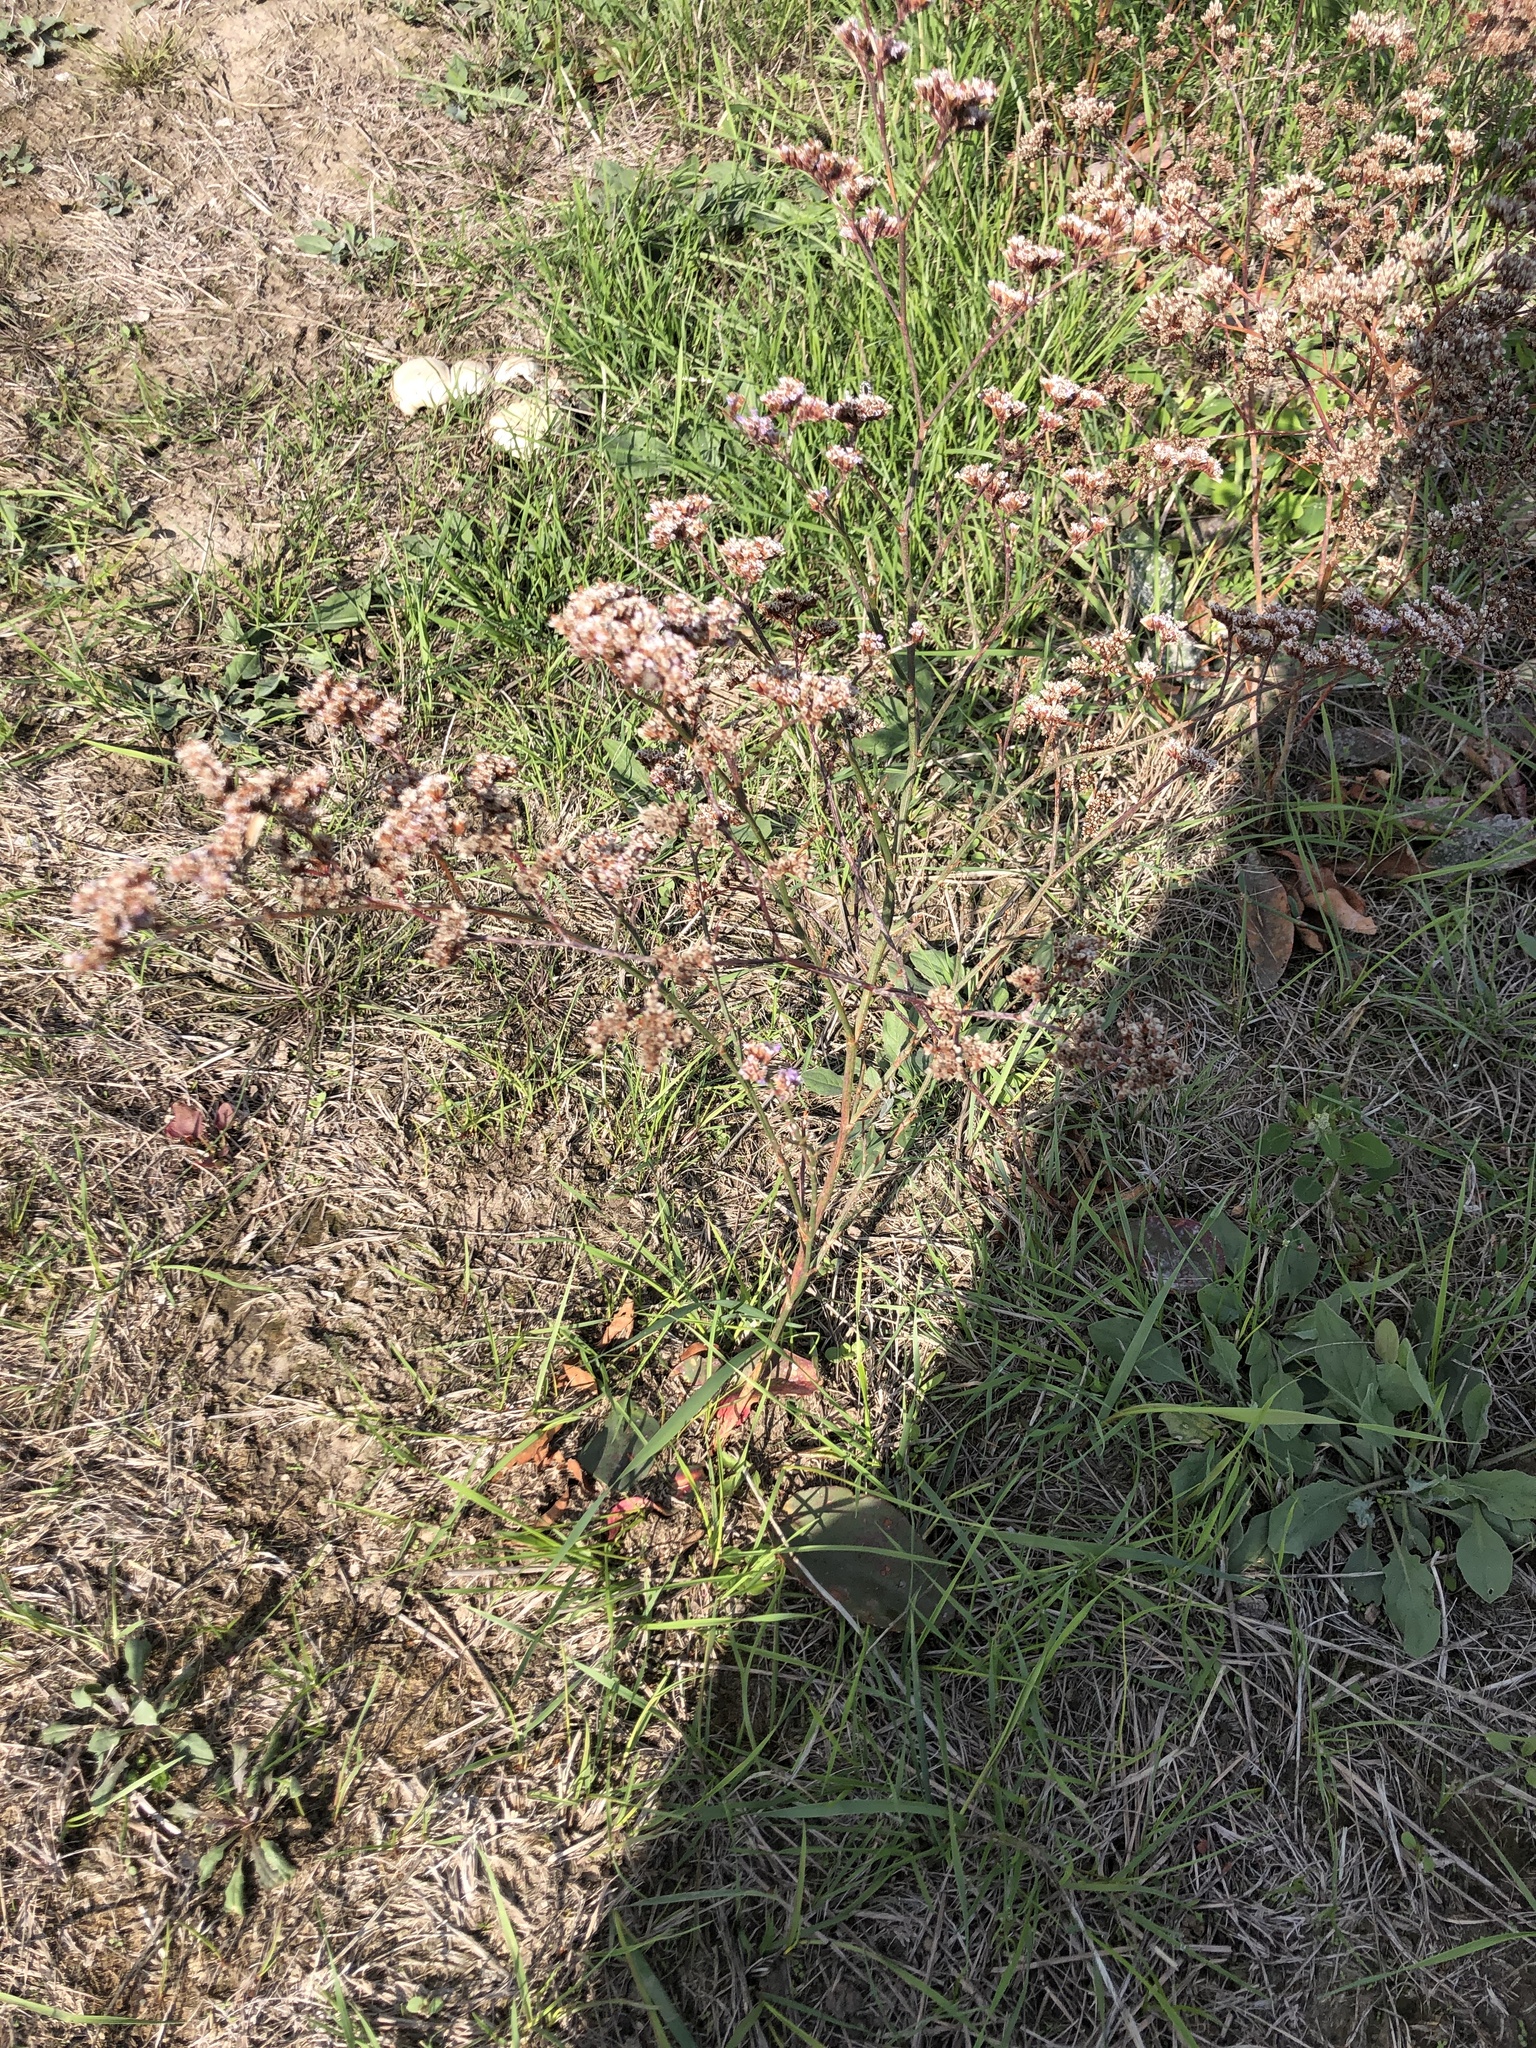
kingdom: Plantae
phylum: Tracheophyta
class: Magnoliopsida
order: Caryophyllales
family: Plumbaginaceae
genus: Limonium
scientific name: Limonium gmelini
